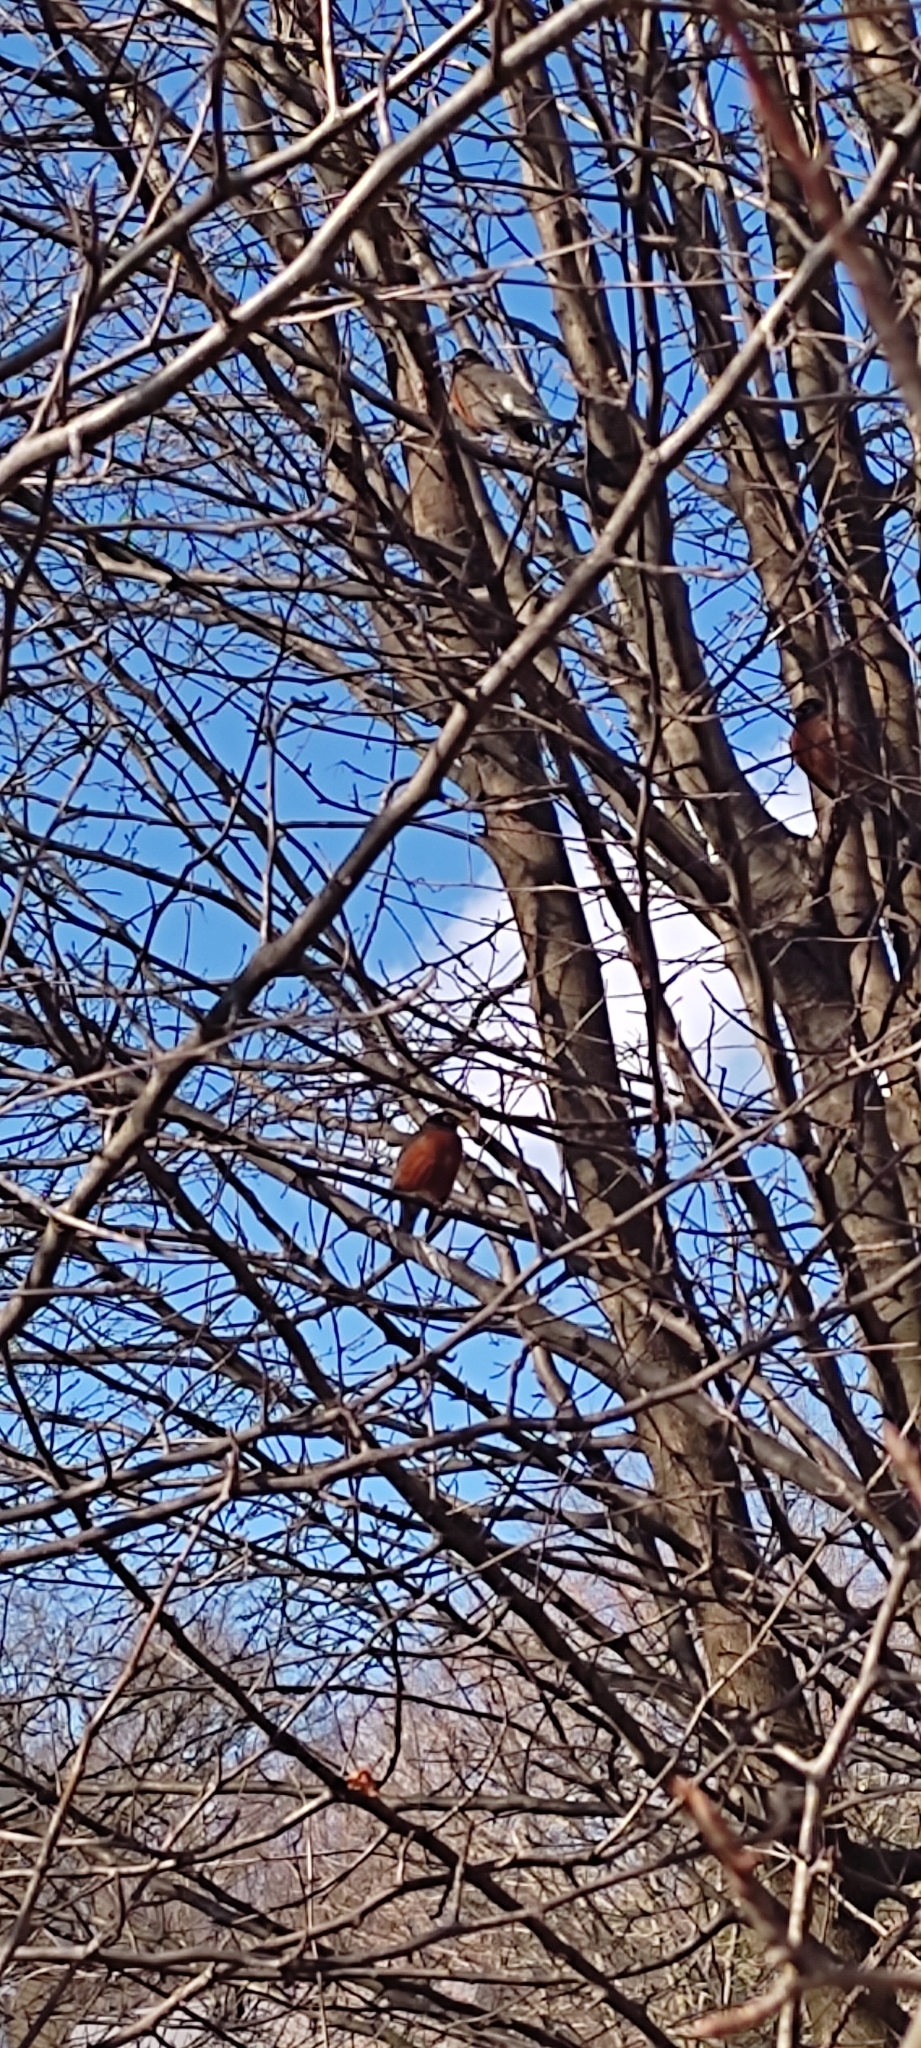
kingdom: Animalia
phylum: Chordata
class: Aves
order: Passeriformes
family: Turdidae
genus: Turdus
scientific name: Turdus migratorius
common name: American robin
